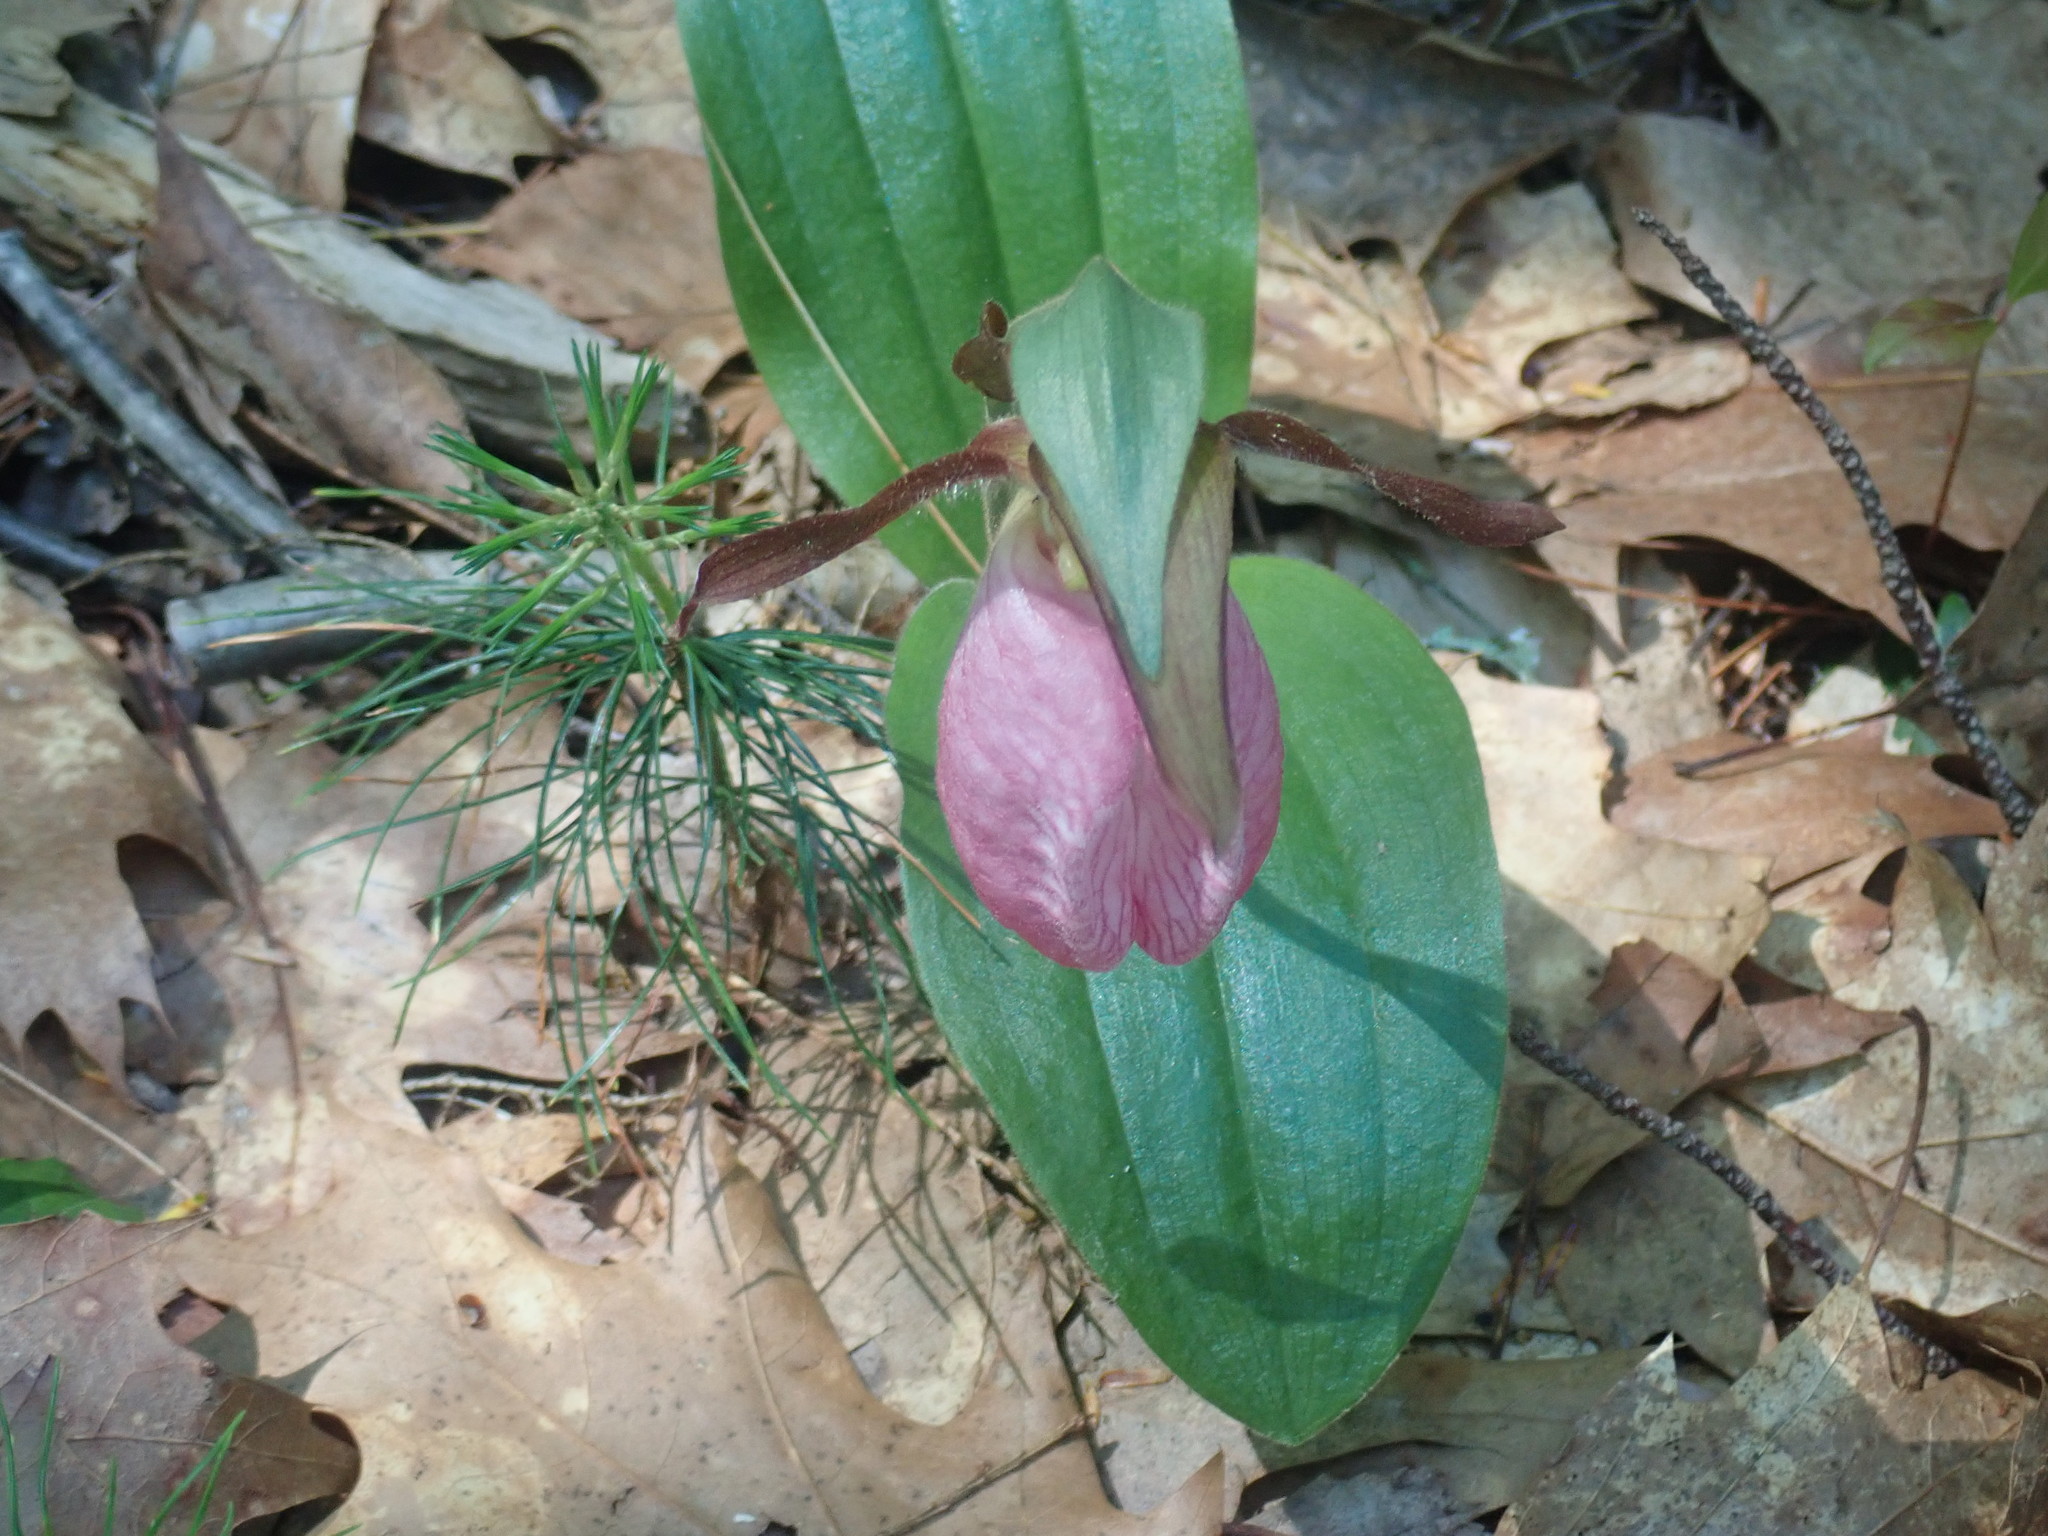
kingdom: Plantae
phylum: Tracheophyta
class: Liliopsida
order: Asparagales
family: Orchidaceae
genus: Cypripedium
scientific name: Cypripedium acaule
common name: Pink lady's-slipper
